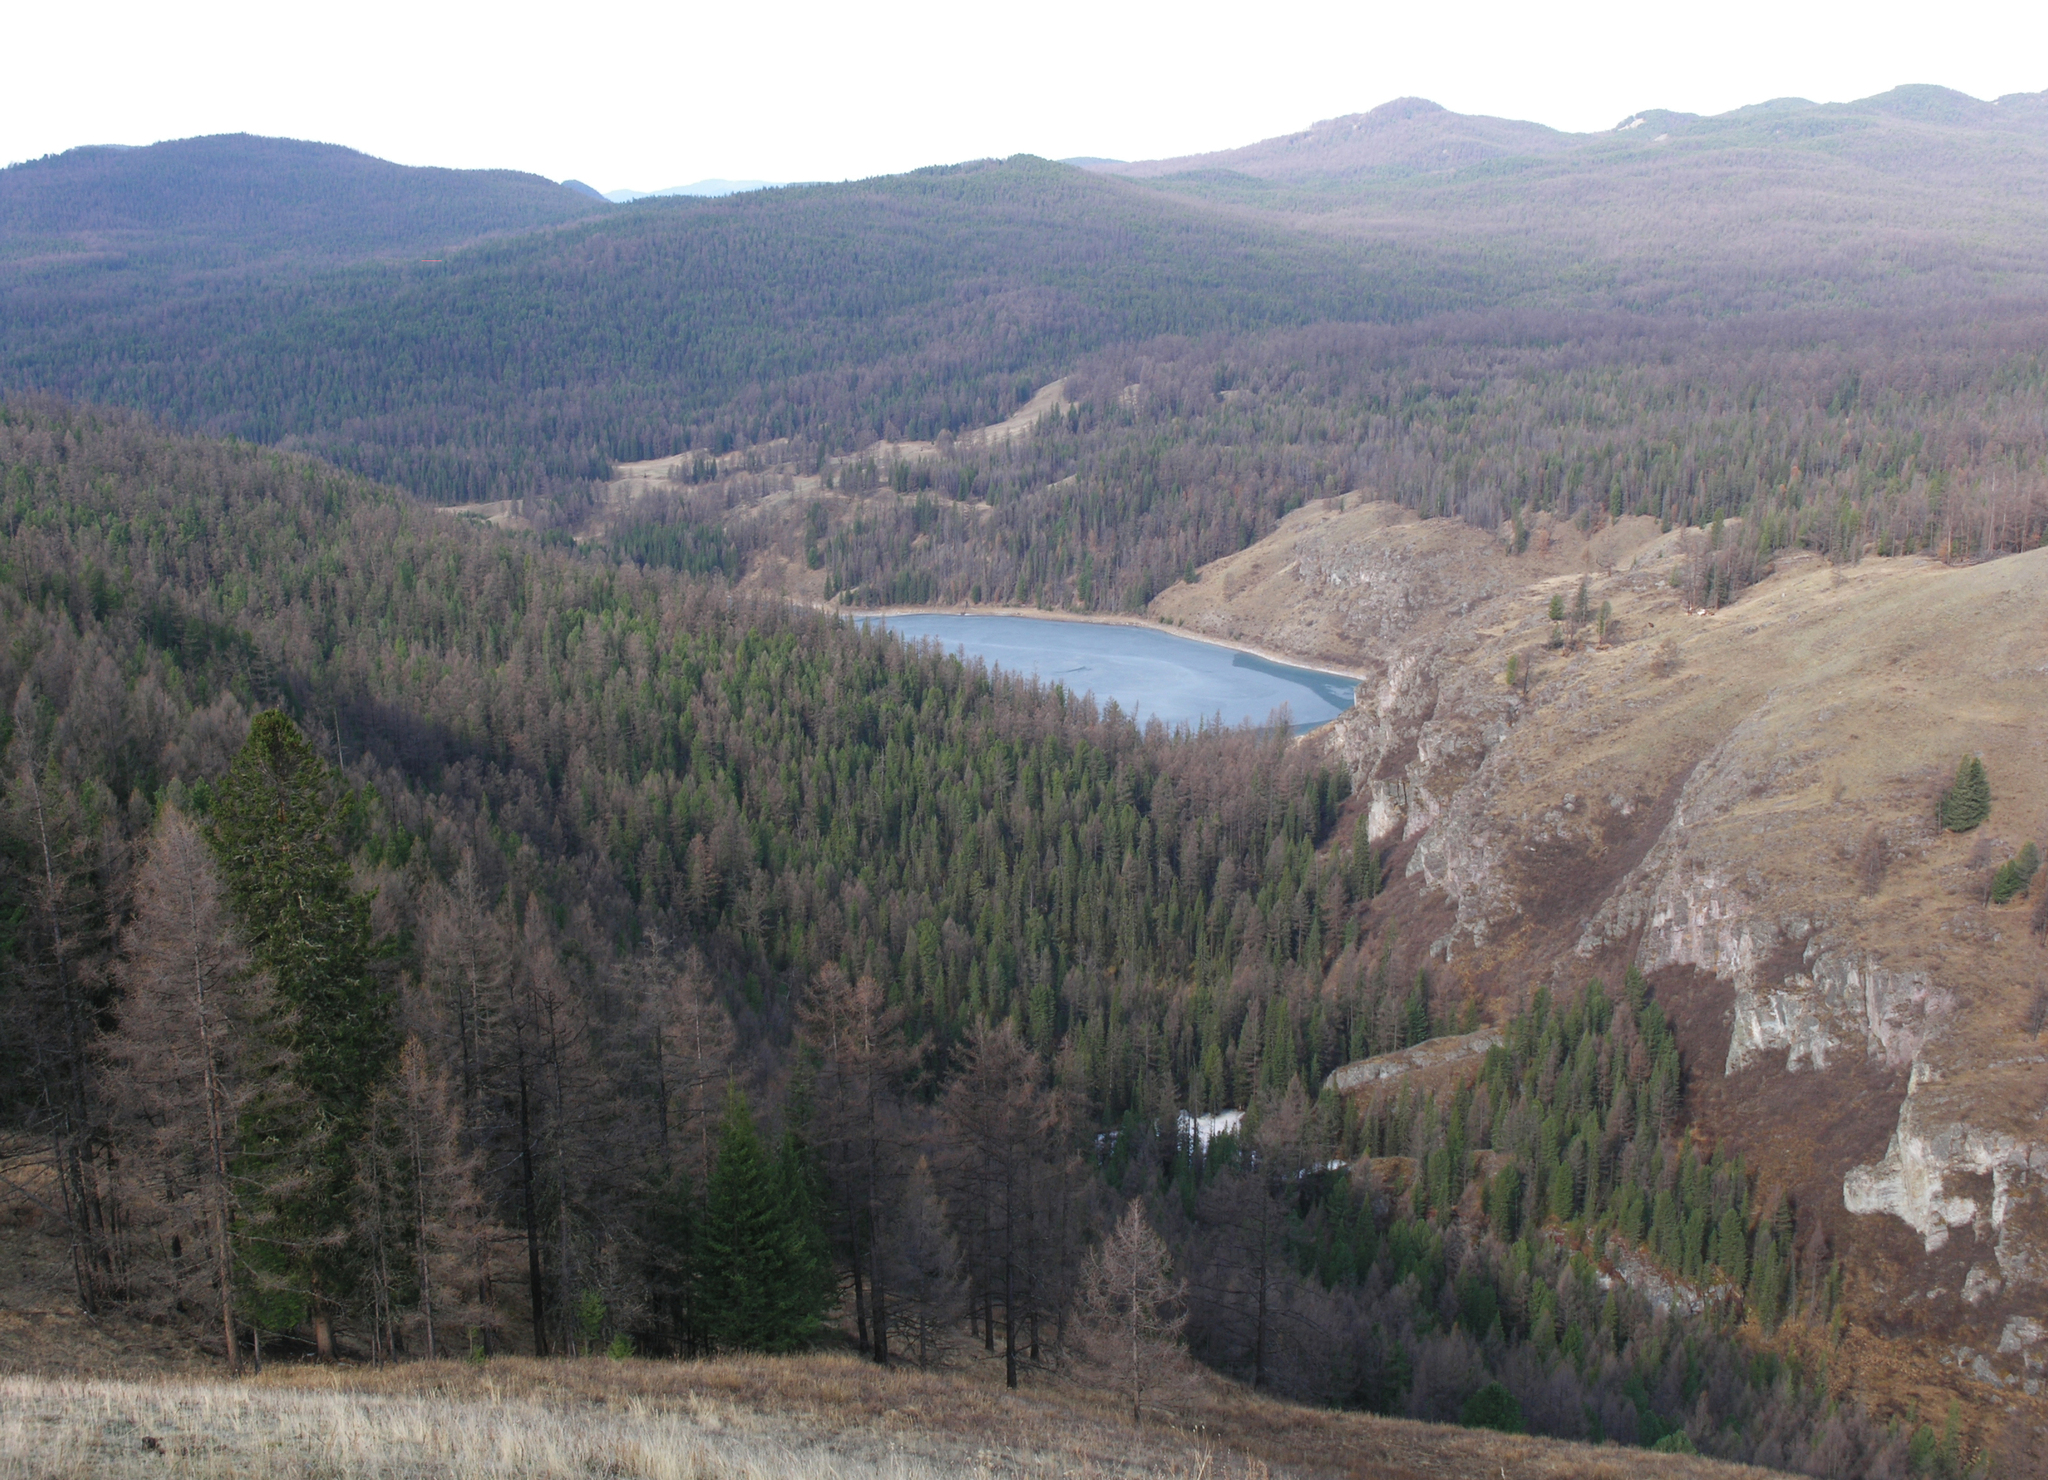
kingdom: Plantae
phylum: Tracheophyta
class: Pinopsida
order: Pinales
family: Pinaceae
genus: Picea
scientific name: Picea obovata
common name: Siberian spruce
